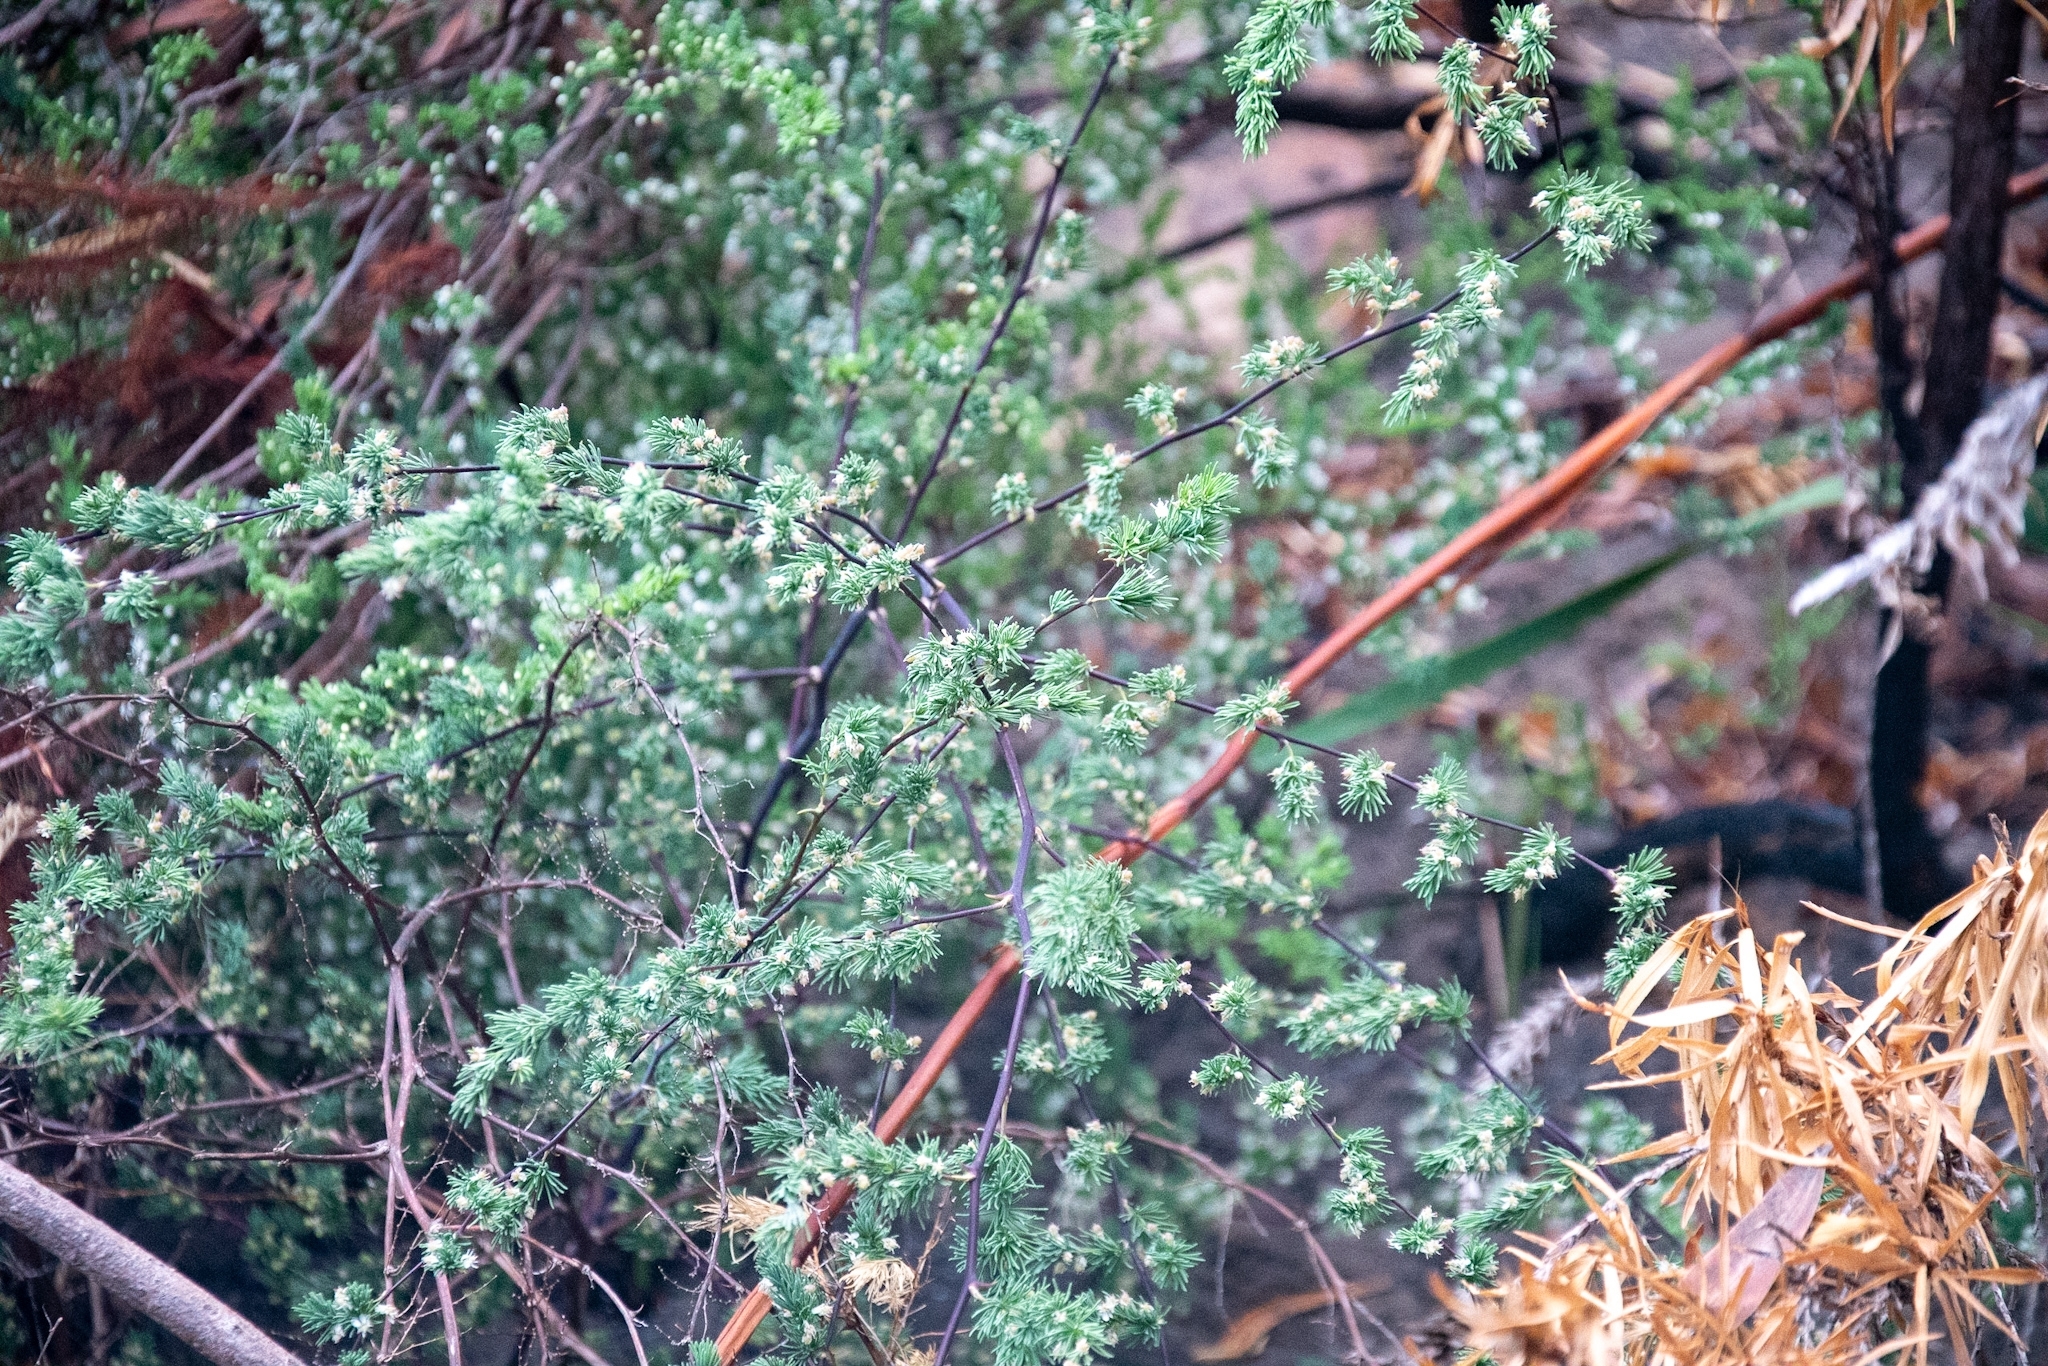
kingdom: Plantae
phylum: Tracheophyta
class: Liliopsida
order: Asparagales
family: Asparagaceae
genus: Asparagus
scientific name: Asparagus rubicundus
